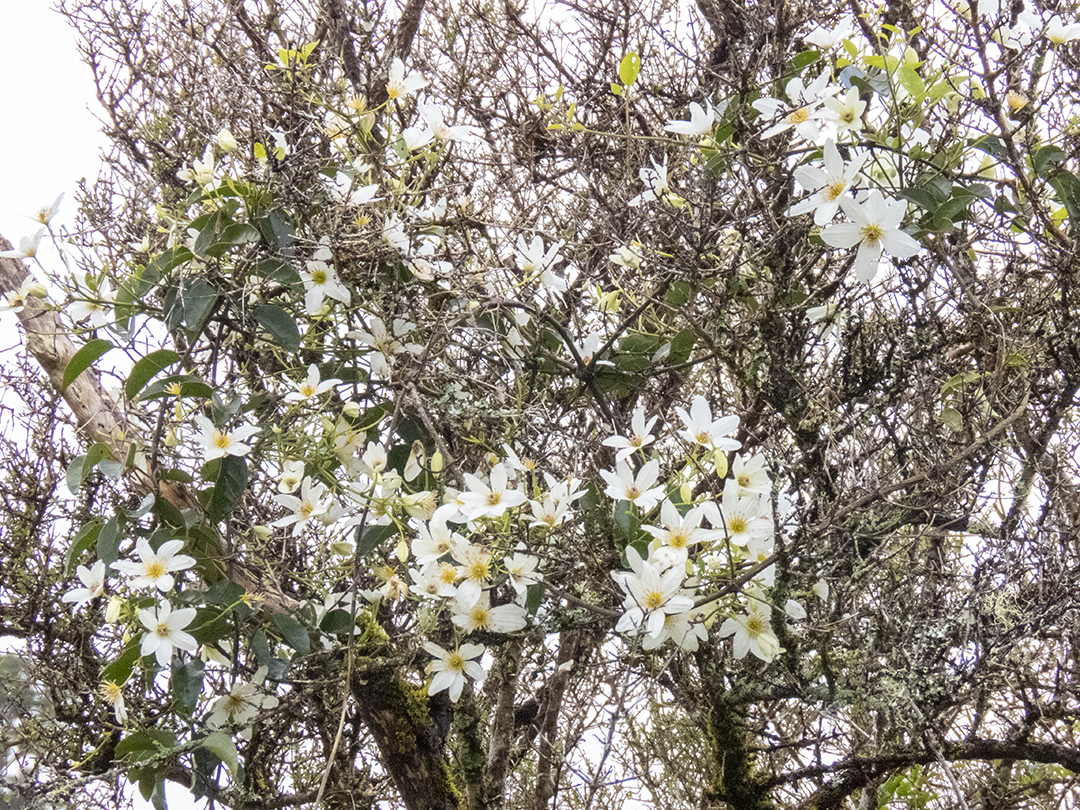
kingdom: Plantae
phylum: Tracheophyta
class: Magnoliopsida
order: Ranunculales
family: Ranunculaceae
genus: Clematis
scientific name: Clematis paniculata
